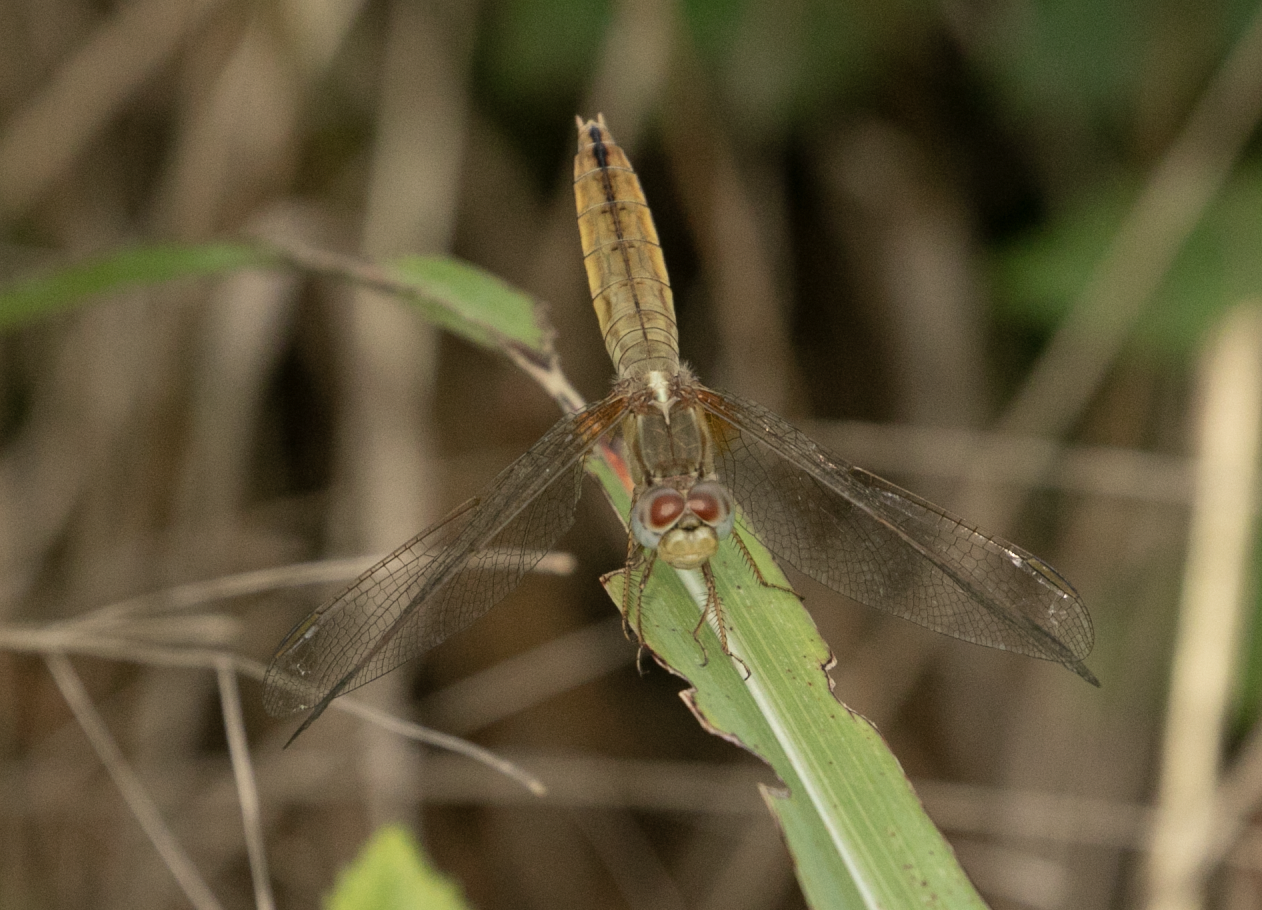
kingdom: Animalia
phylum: Arthropoda
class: Insecta
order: Odonata
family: Libellulidae
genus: Crocothemis
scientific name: Crocothemis erythraea
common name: Scarlet dragonfly
